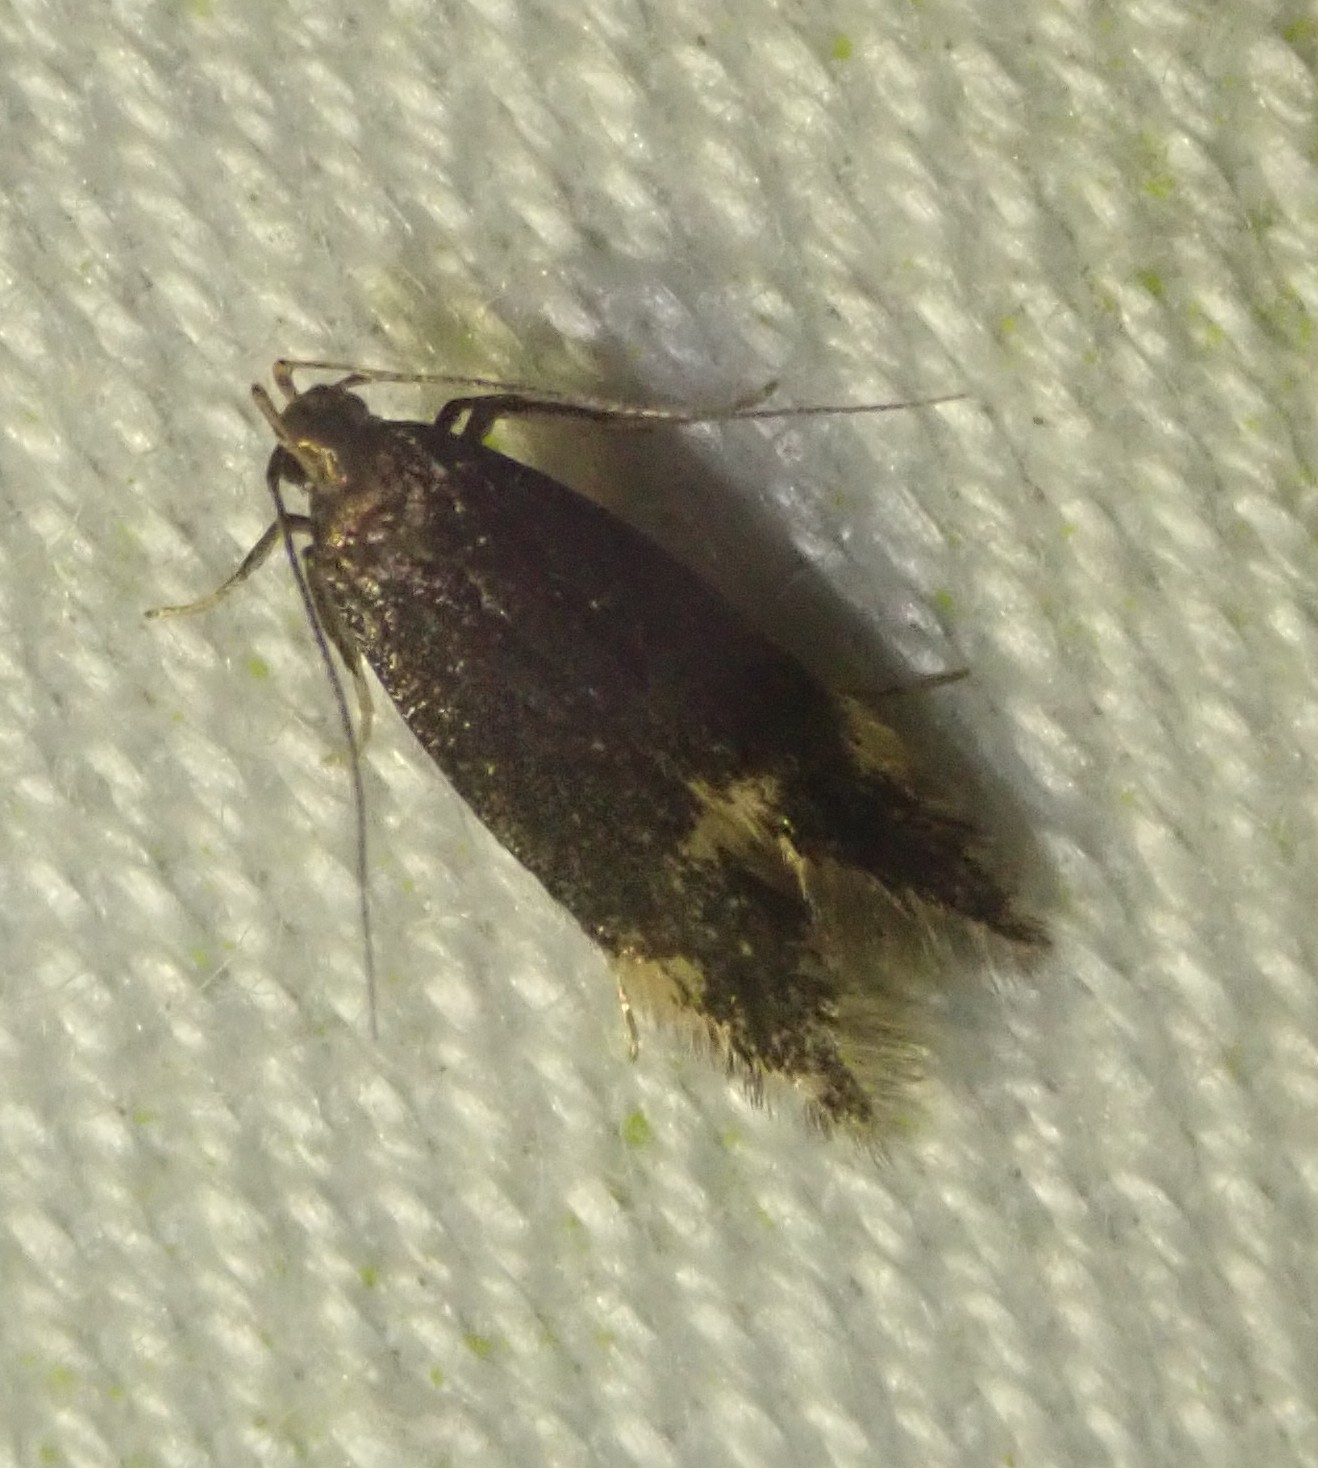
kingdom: Animalia
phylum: Arthropoda
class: Insecta
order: Lepidoptera
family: Gelechiidae
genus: Oxypteryx
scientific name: Oxypteryx atrella
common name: Two-spotted neb
